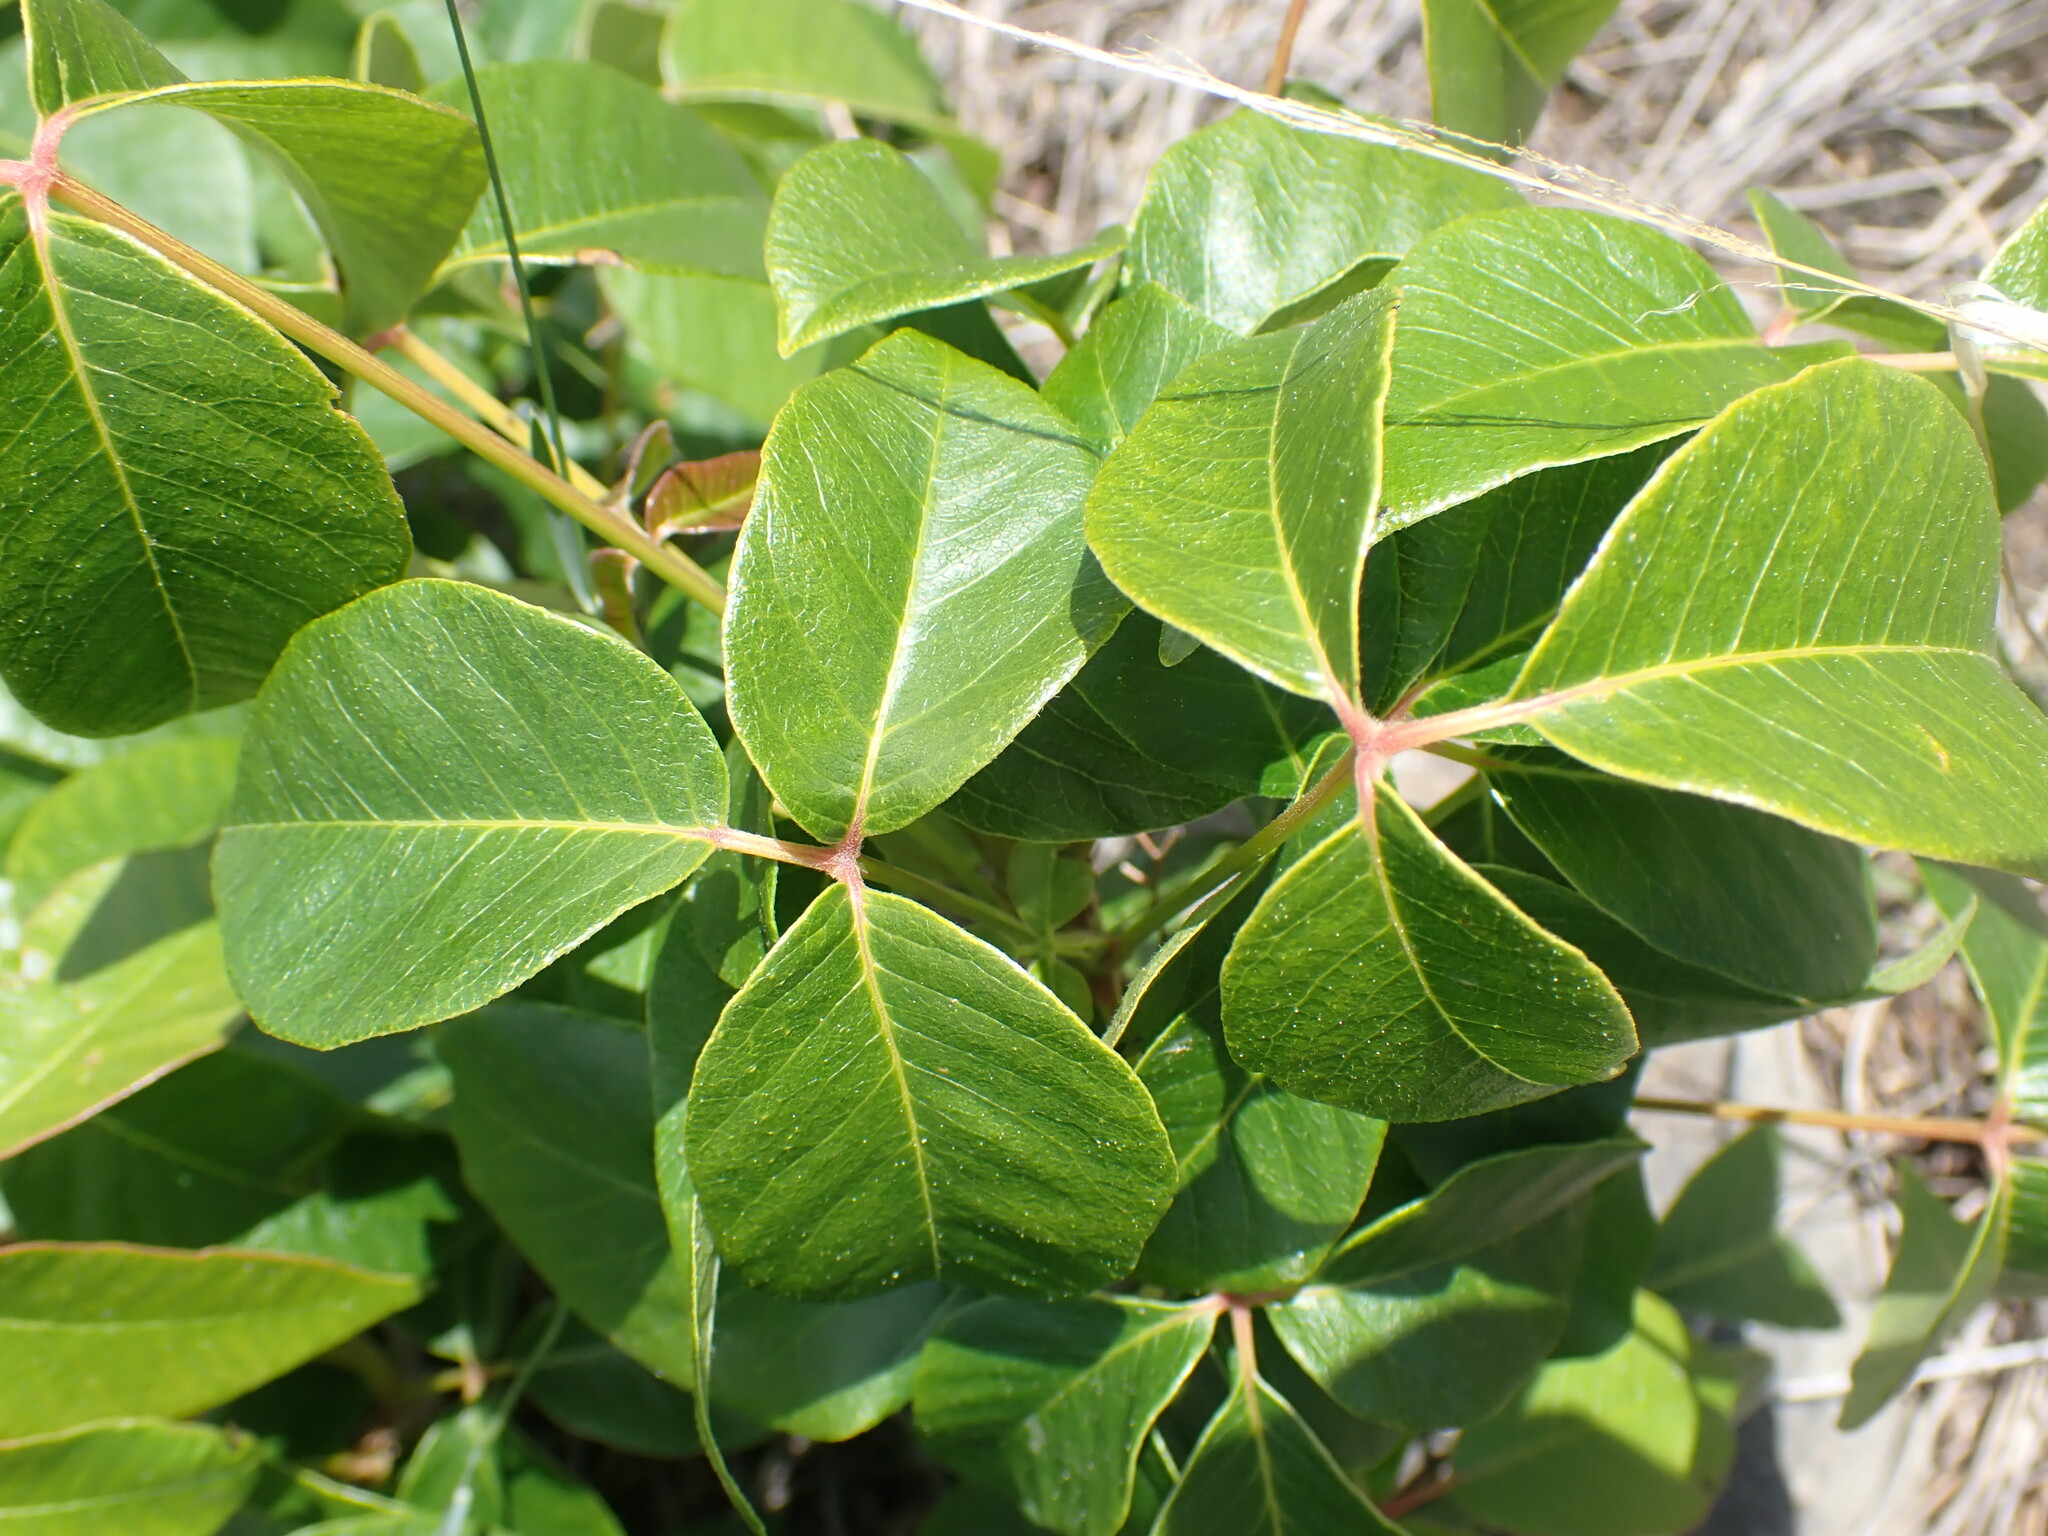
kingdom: Plantae
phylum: Tracheophyta
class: Magnoliopsida
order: Sapindales
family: Anacardiaceae
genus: Toxicodendron
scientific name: Toxicodendron rydbergii
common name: Rydberg's poison-ivy
